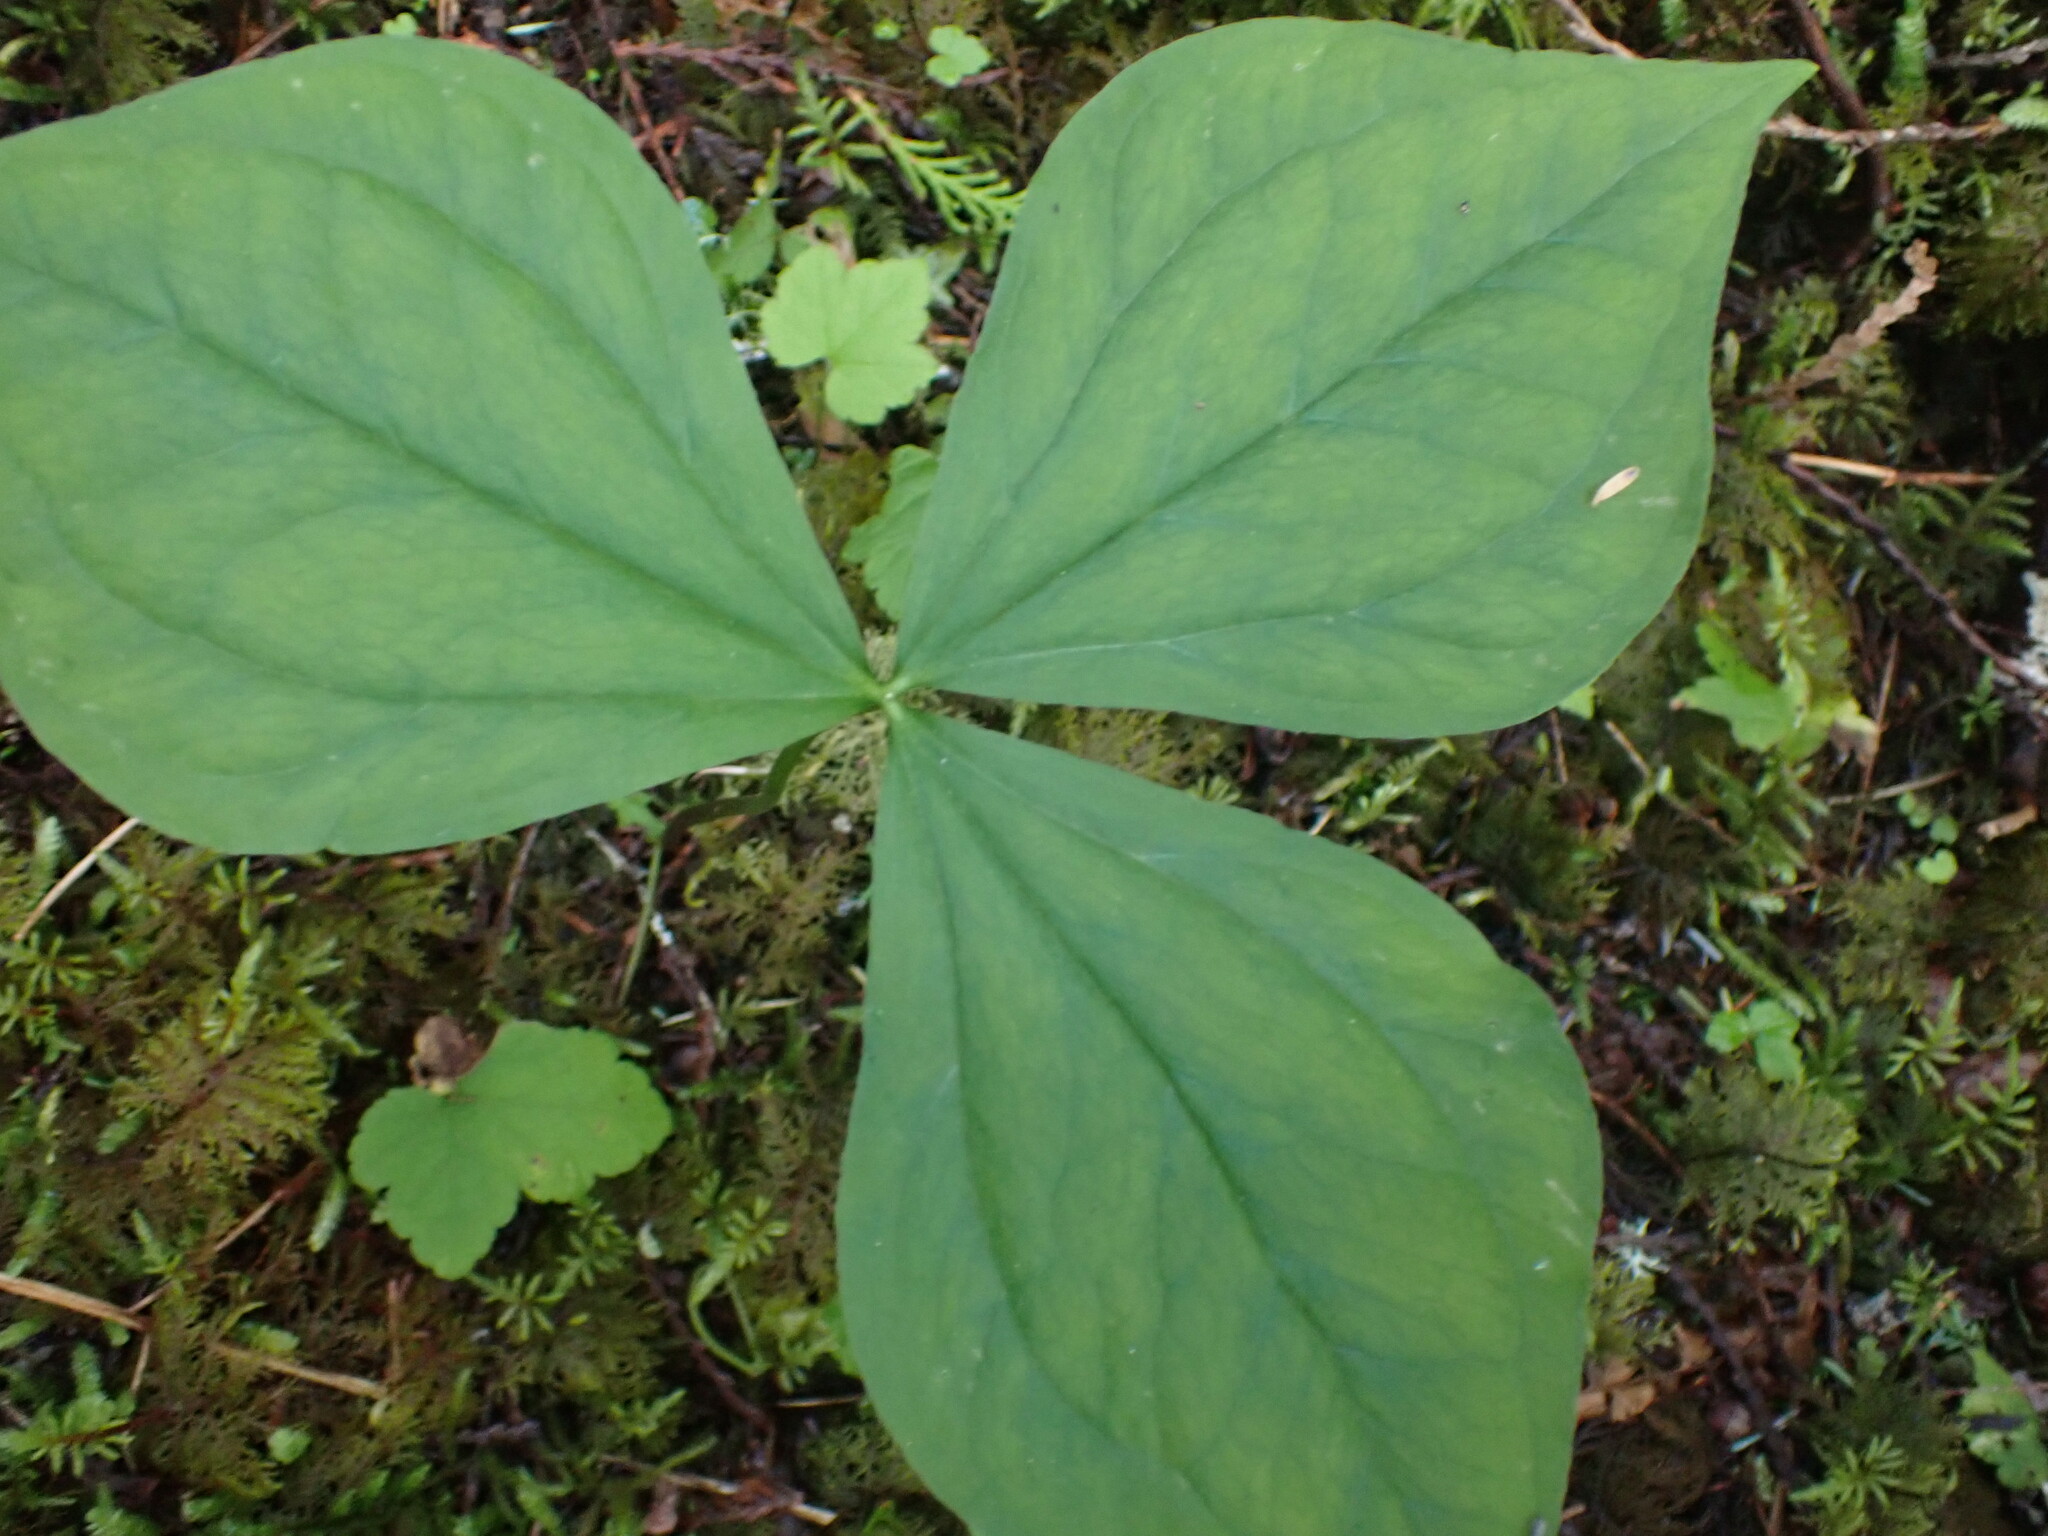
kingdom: Plantae
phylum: Tracheophyta
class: Liliopsida
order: Liliales
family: Melanthiaceae
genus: Trillium
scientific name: Trillium ovatum
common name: Pacific trillium
